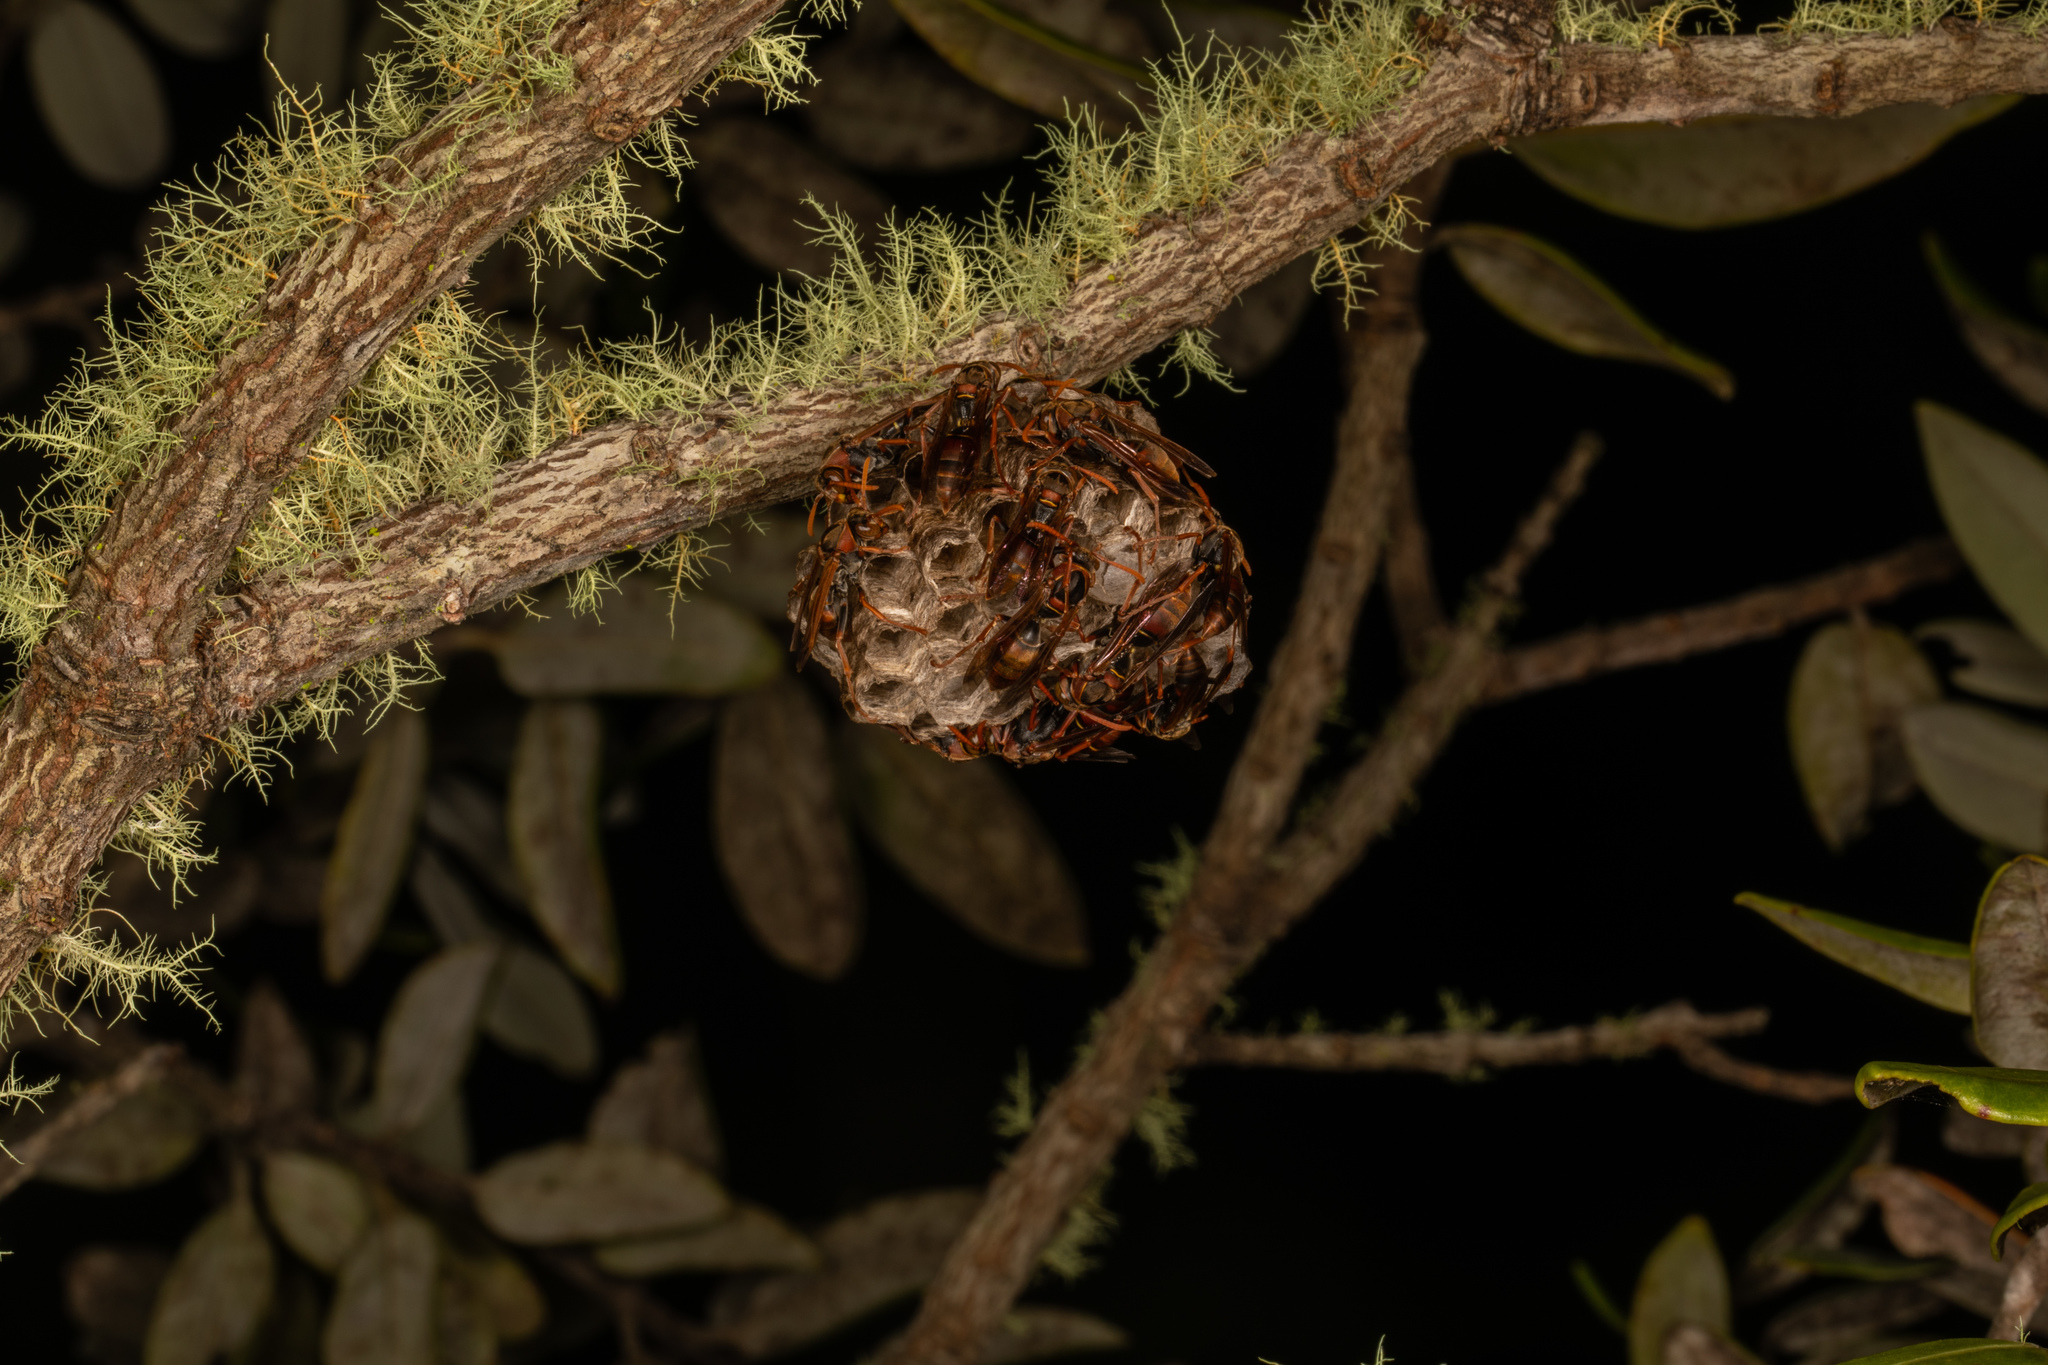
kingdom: Animalia
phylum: Arthropoda
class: Insecta
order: Hymenoptera
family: Eumenidae
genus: Polistes
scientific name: Polistes humilis
